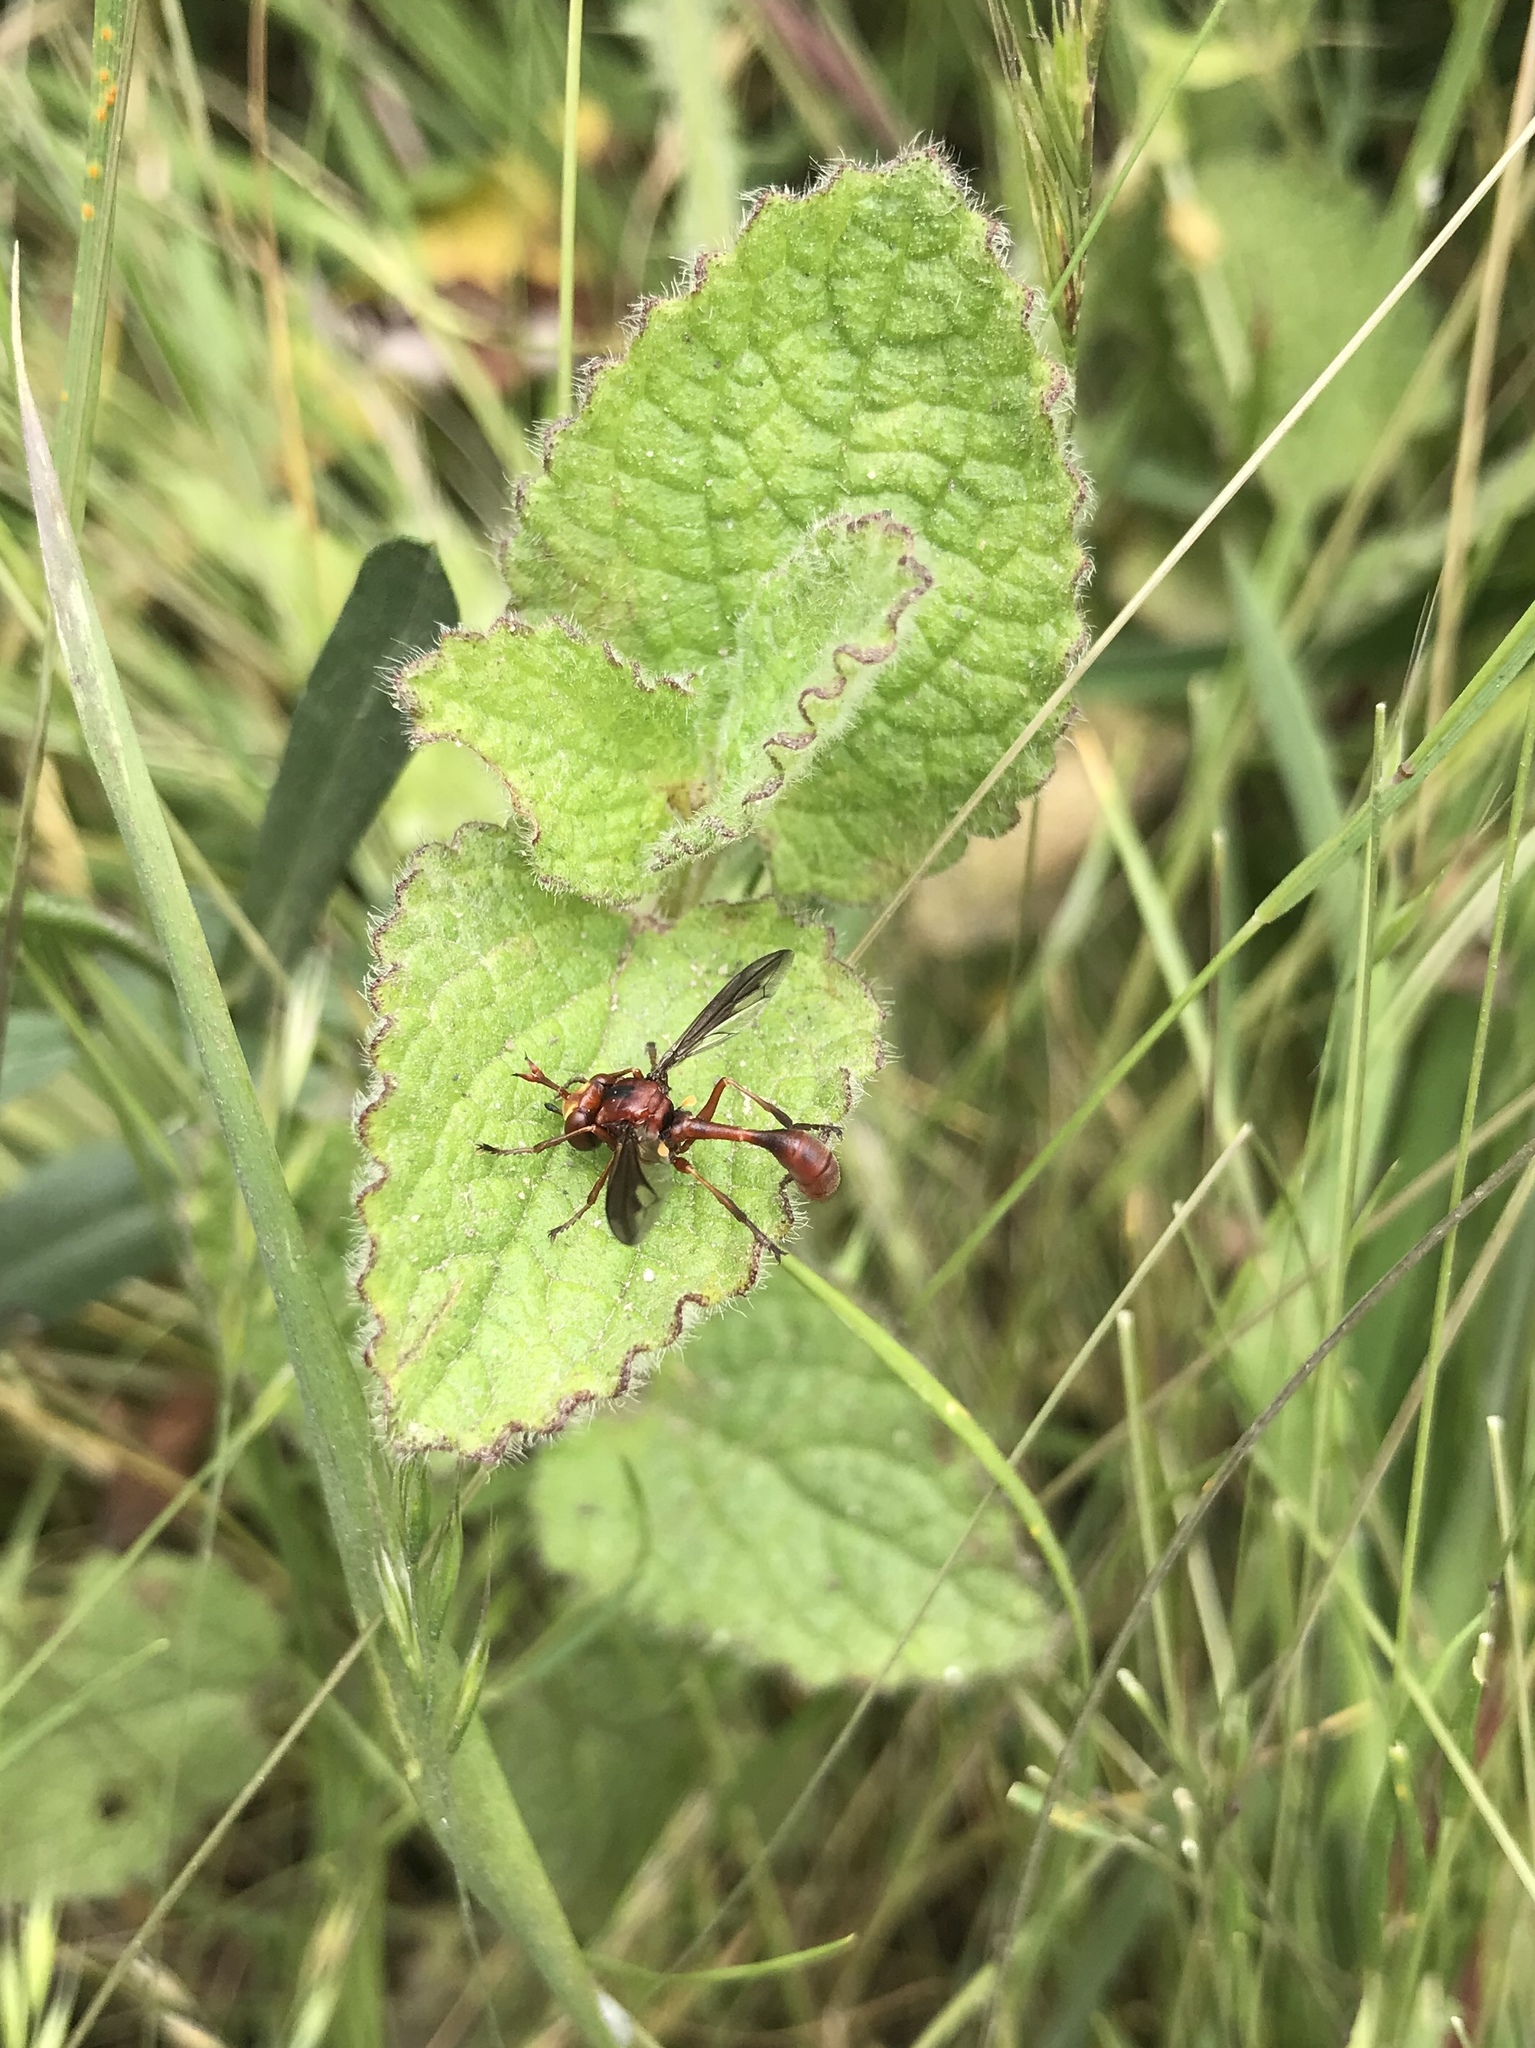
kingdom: Animalia
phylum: Arthropoda
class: Insecta
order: Diptera
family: Conopidae
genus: Physocephala
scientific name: Physocephala burgessi
